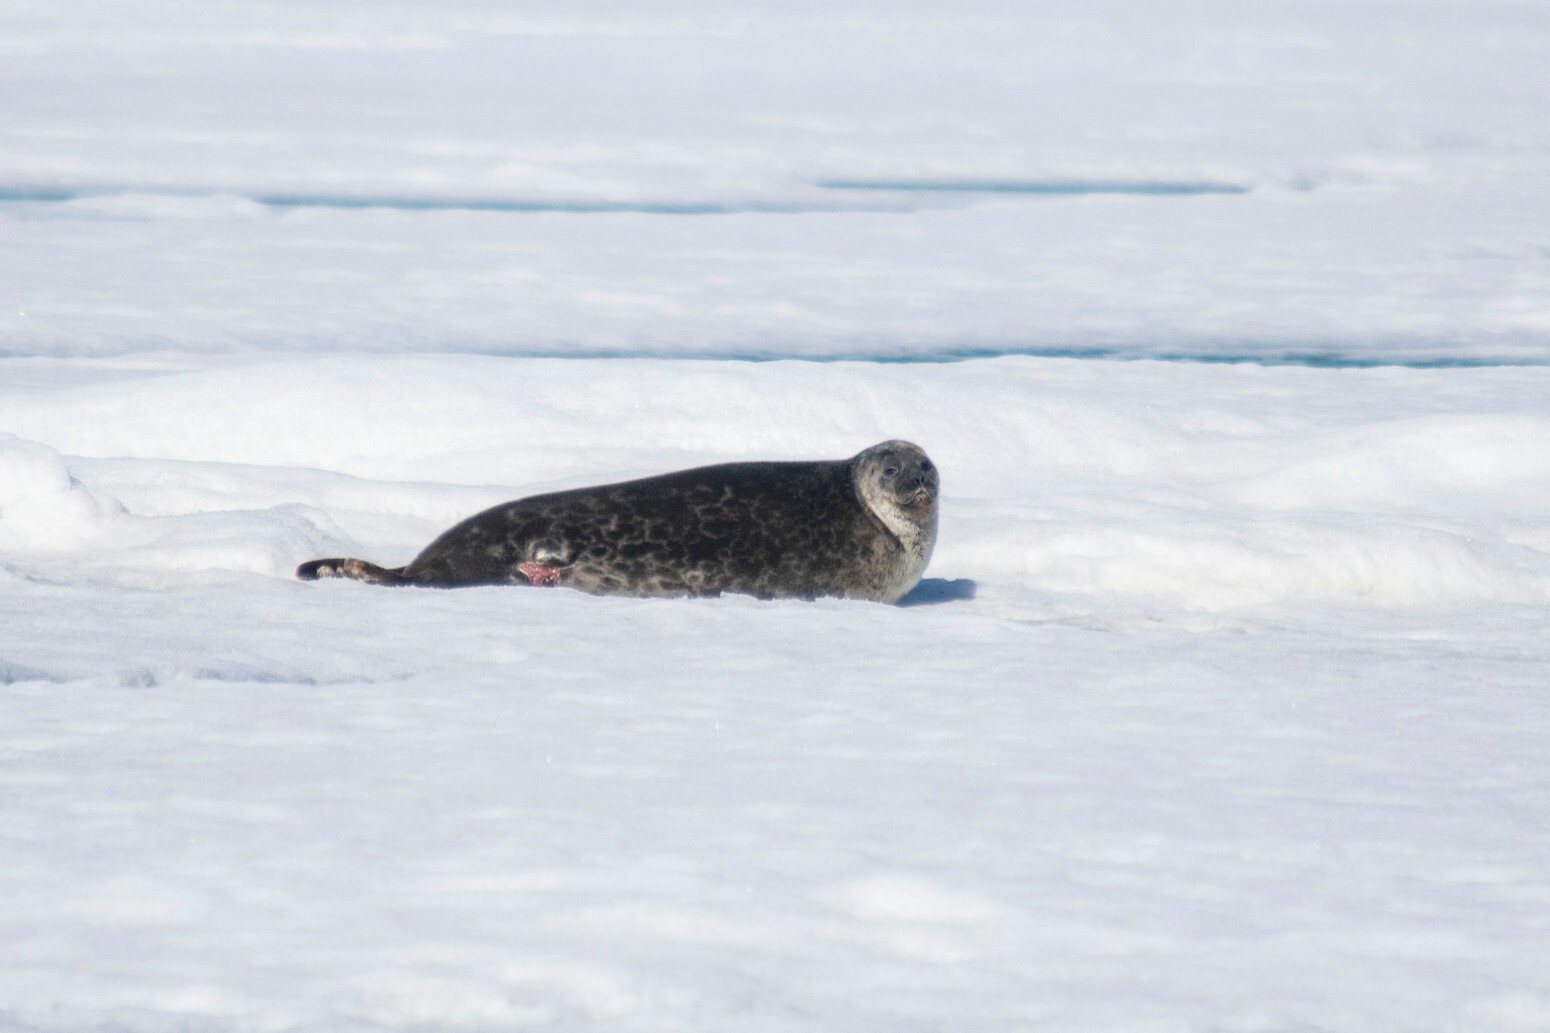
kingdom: Animalia
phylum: Chordata
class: Mammalia
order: Carnivora
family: Phocidae
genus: Pusa
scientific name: Pusa hispida
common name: Ringed seal
